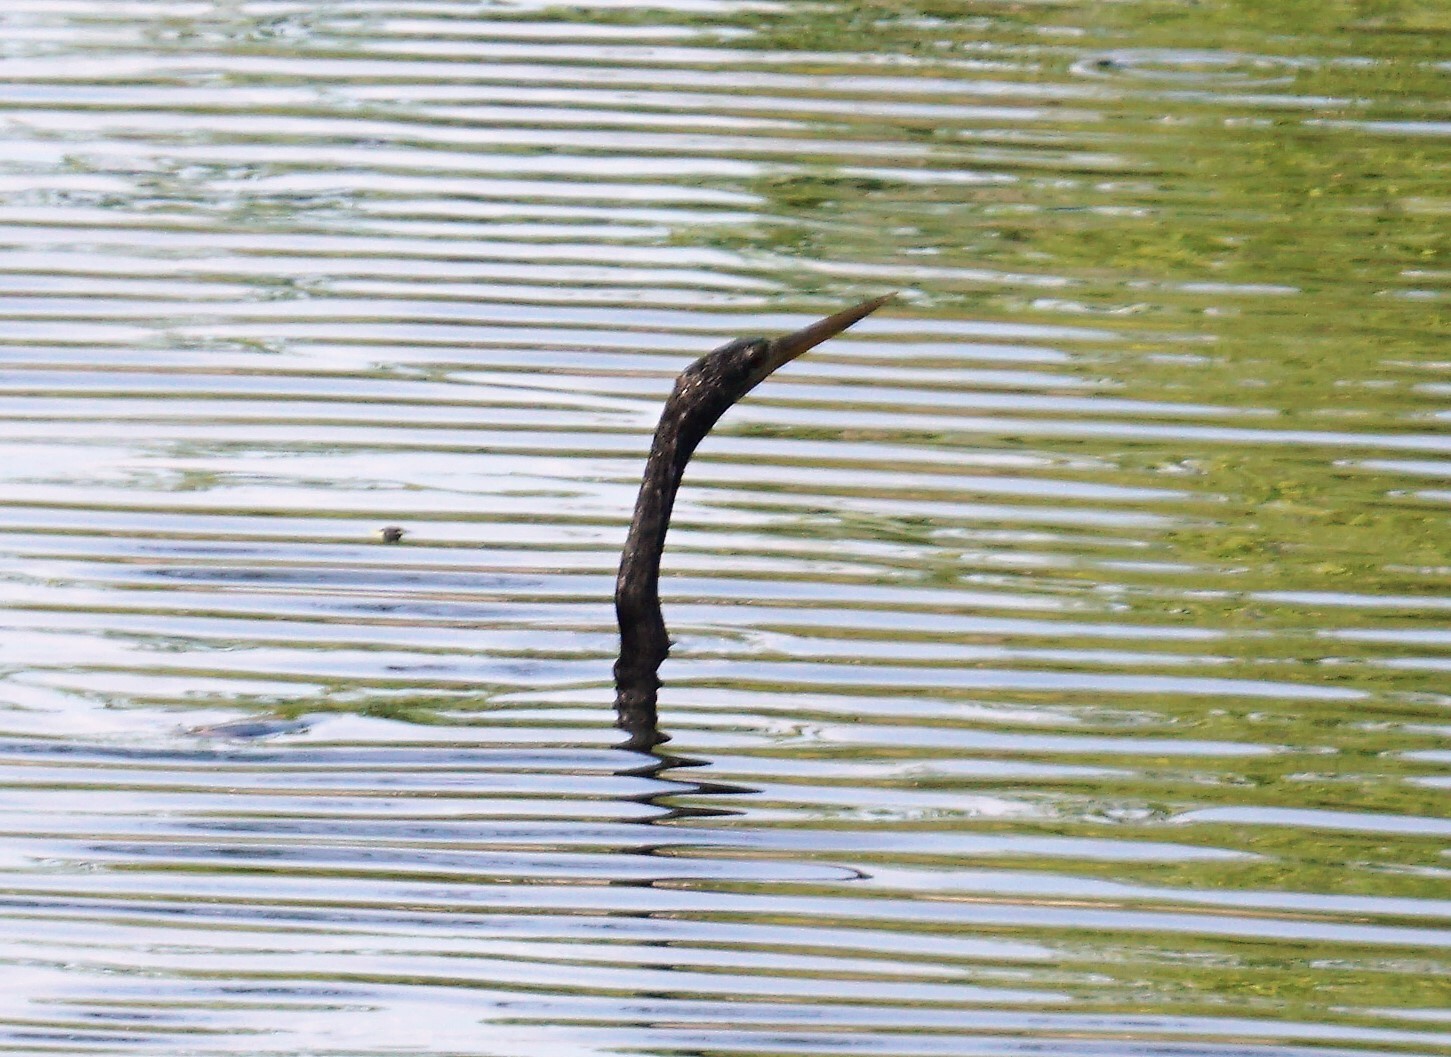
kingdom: Animalia
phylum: Chordata
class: Aves
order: Suliformes
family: Anhingidae
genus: Anhinga
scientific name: Anhinga anhinga
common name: Anhinga
